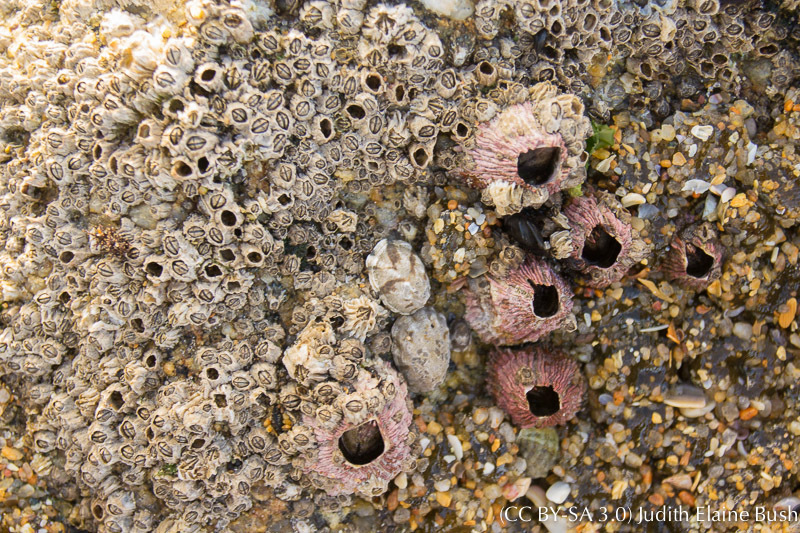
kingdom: Animalia
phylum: Arthropoda
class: Maxillopoda
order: Sessilia
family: Tetraclitidae
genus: Tetraclita
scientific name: Tetraclita rubescens
